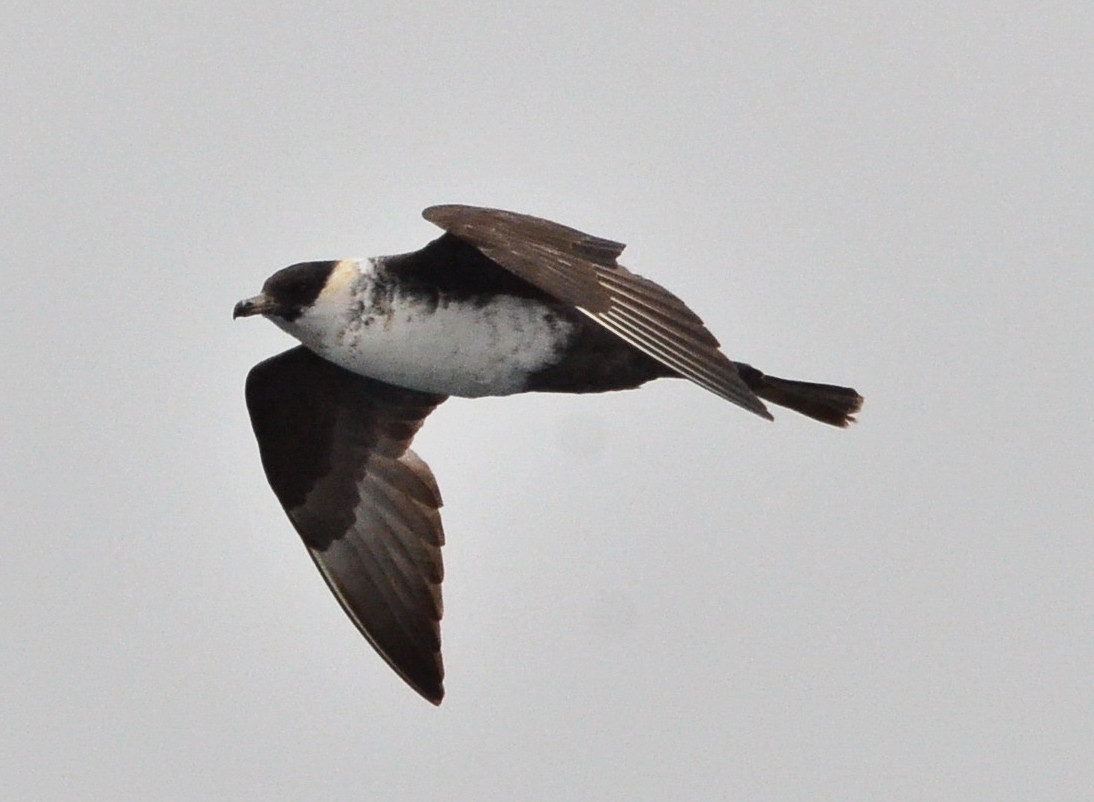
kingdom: Animalia
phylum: Chordata
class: Aves
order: Charadriiformes
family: Stercorariidae
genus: Stercorarius
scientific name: Stercorarius pomarinus
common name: Pomarine jaeger
